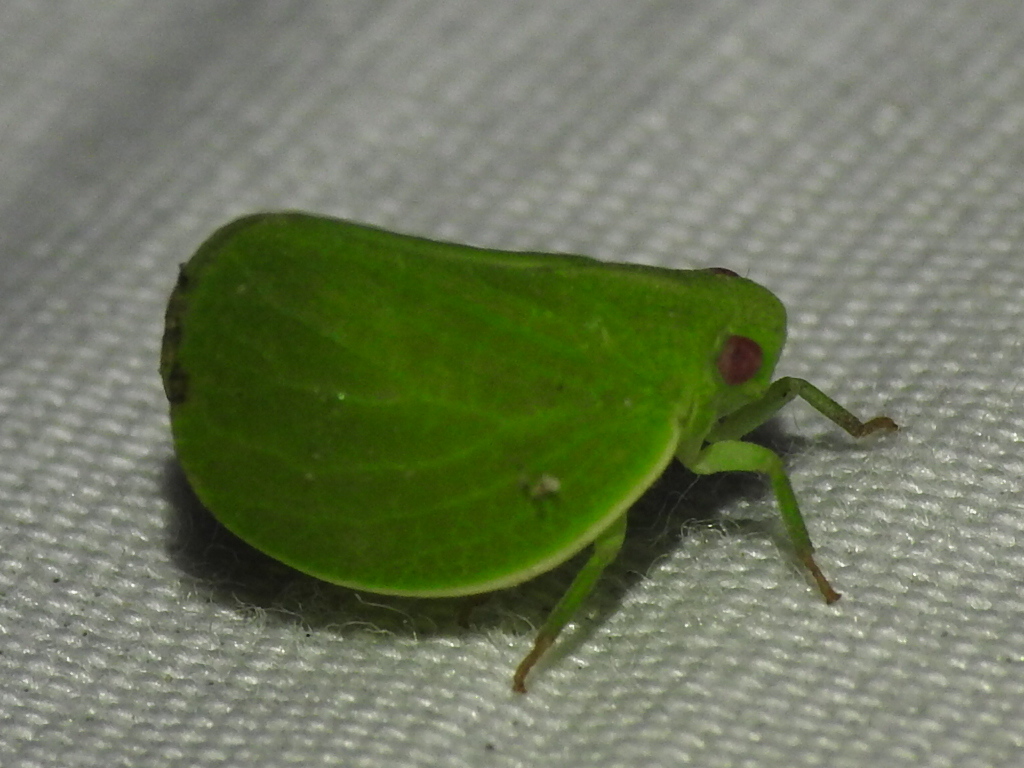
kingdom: Animalia
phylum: Arthropoda
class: Insecta
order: Hemiptera
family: Acanaloniidae
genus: Acanalonia
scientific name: Acanalonia virescens
